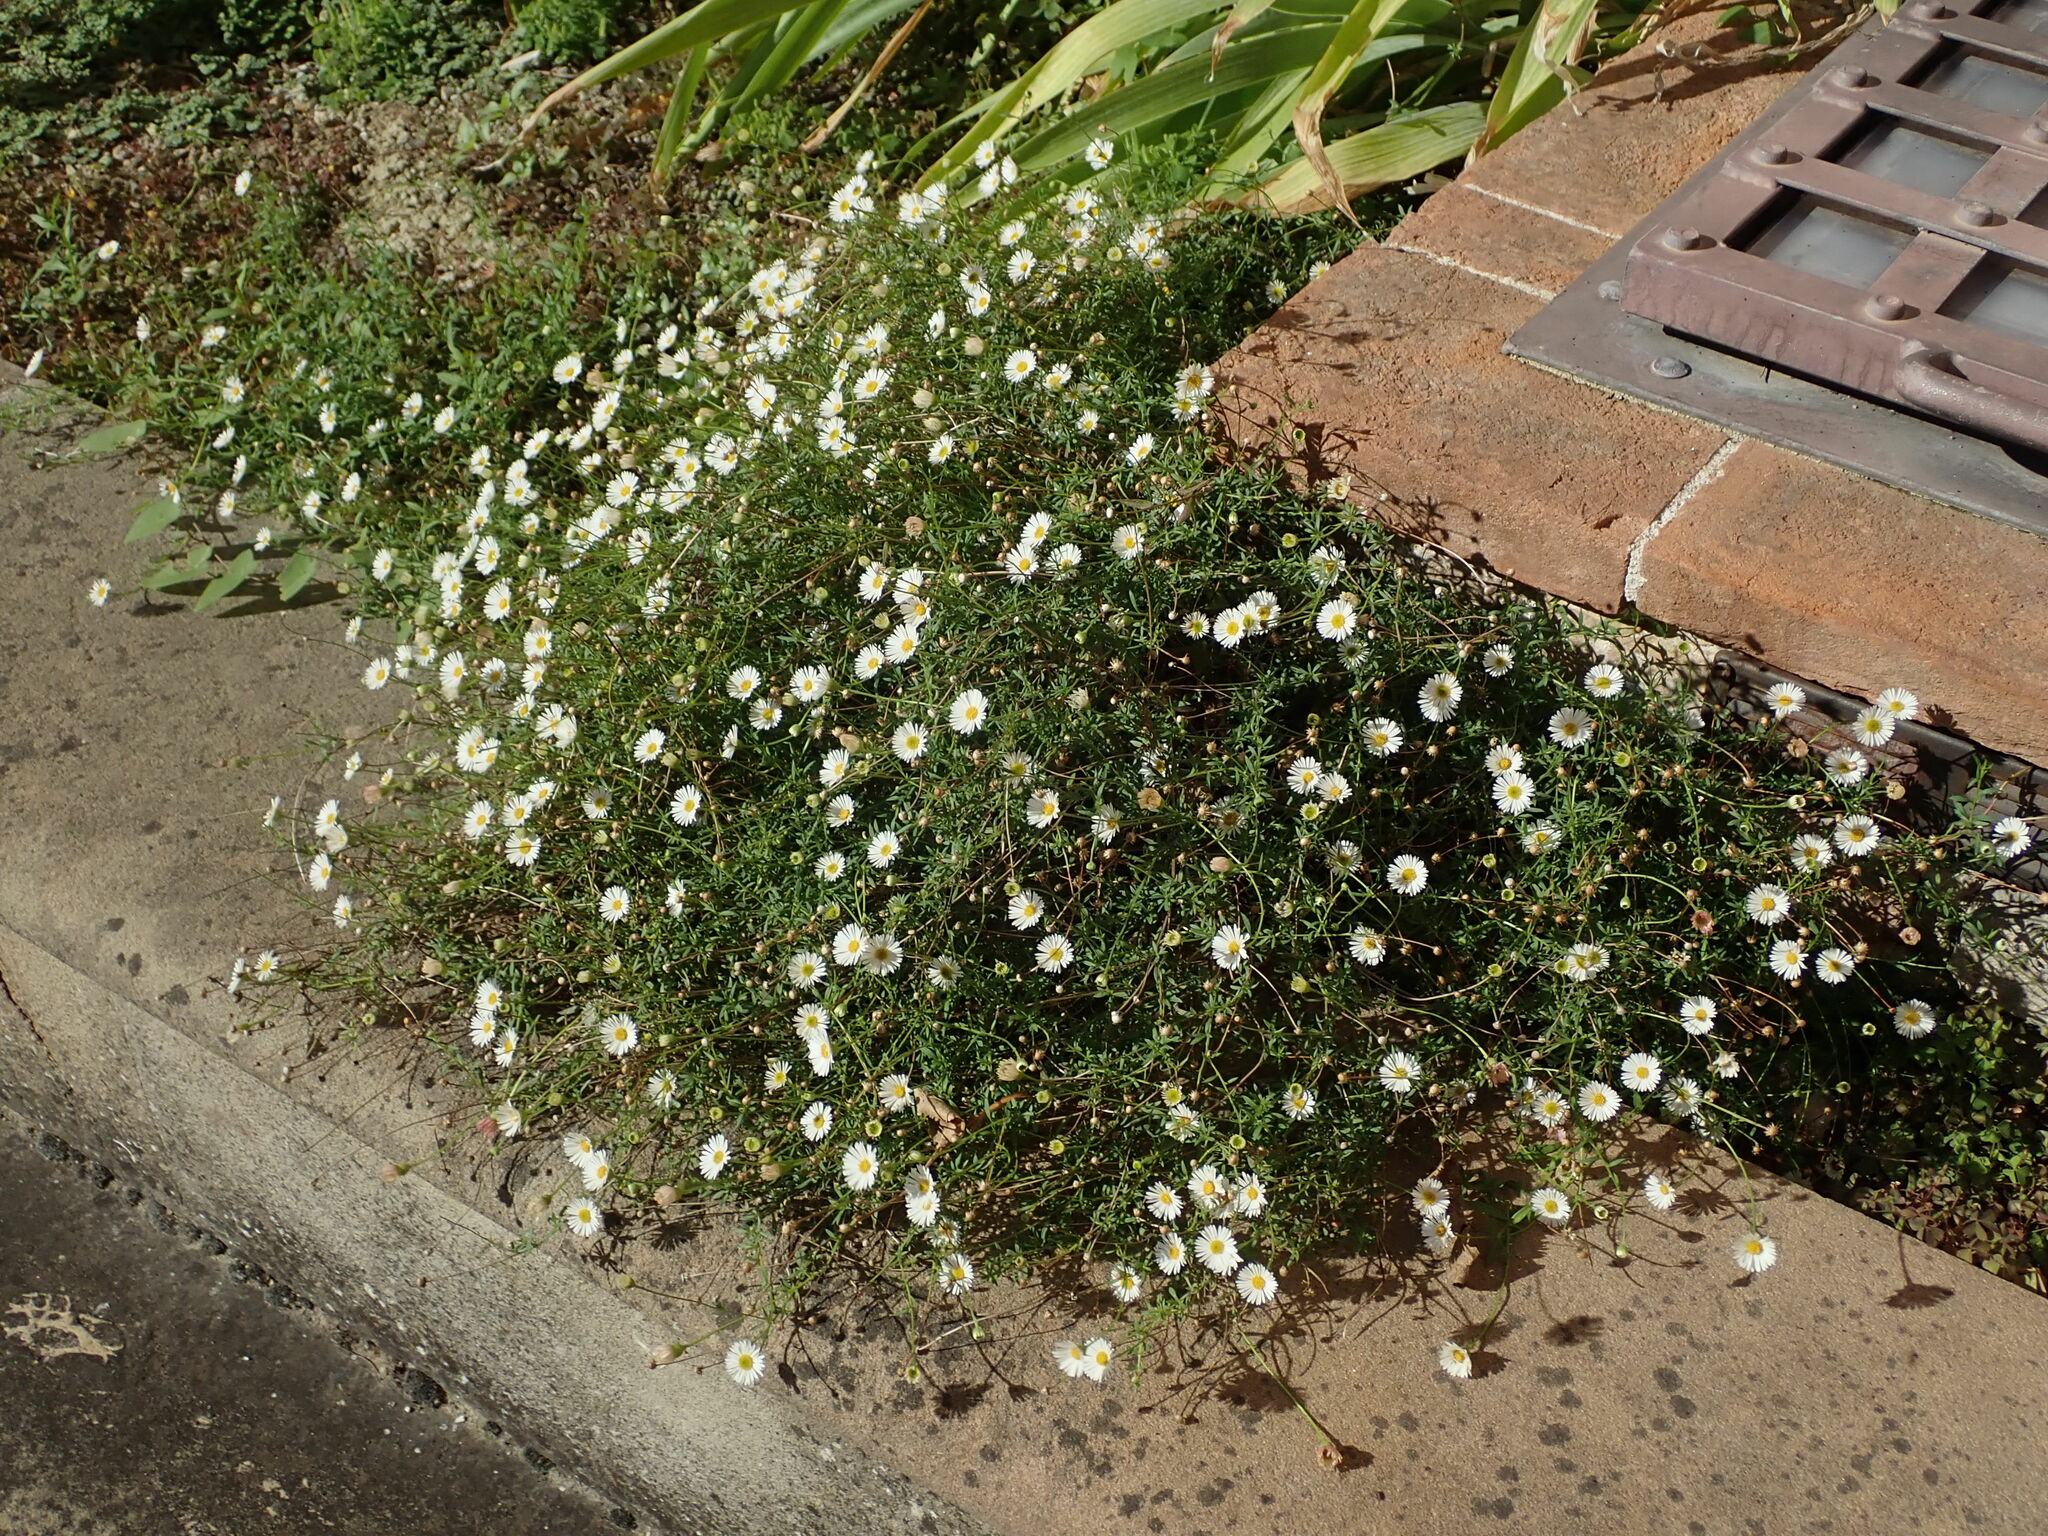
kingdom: Plantae
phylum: Tracheophyta
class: Magnoliopsida
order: Asterales
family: Asteraceae
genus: Erigeron
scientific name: Erigeron karvinskianus
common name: Mexican fleabane
